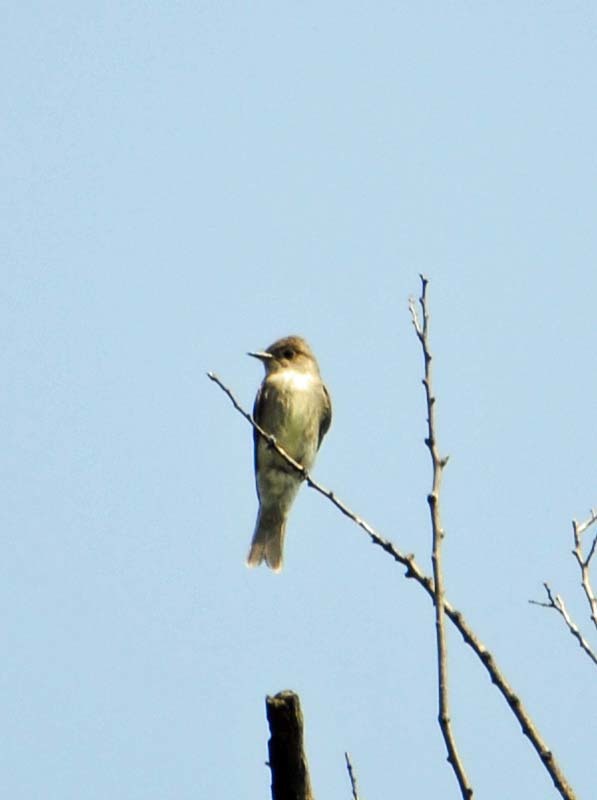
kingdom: Animalia
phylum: Chordata
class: Aves
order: Passeriformes
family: Tyrannidae
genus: Contopus
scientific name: Contopus sordidulus
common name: Western wood-pewee
